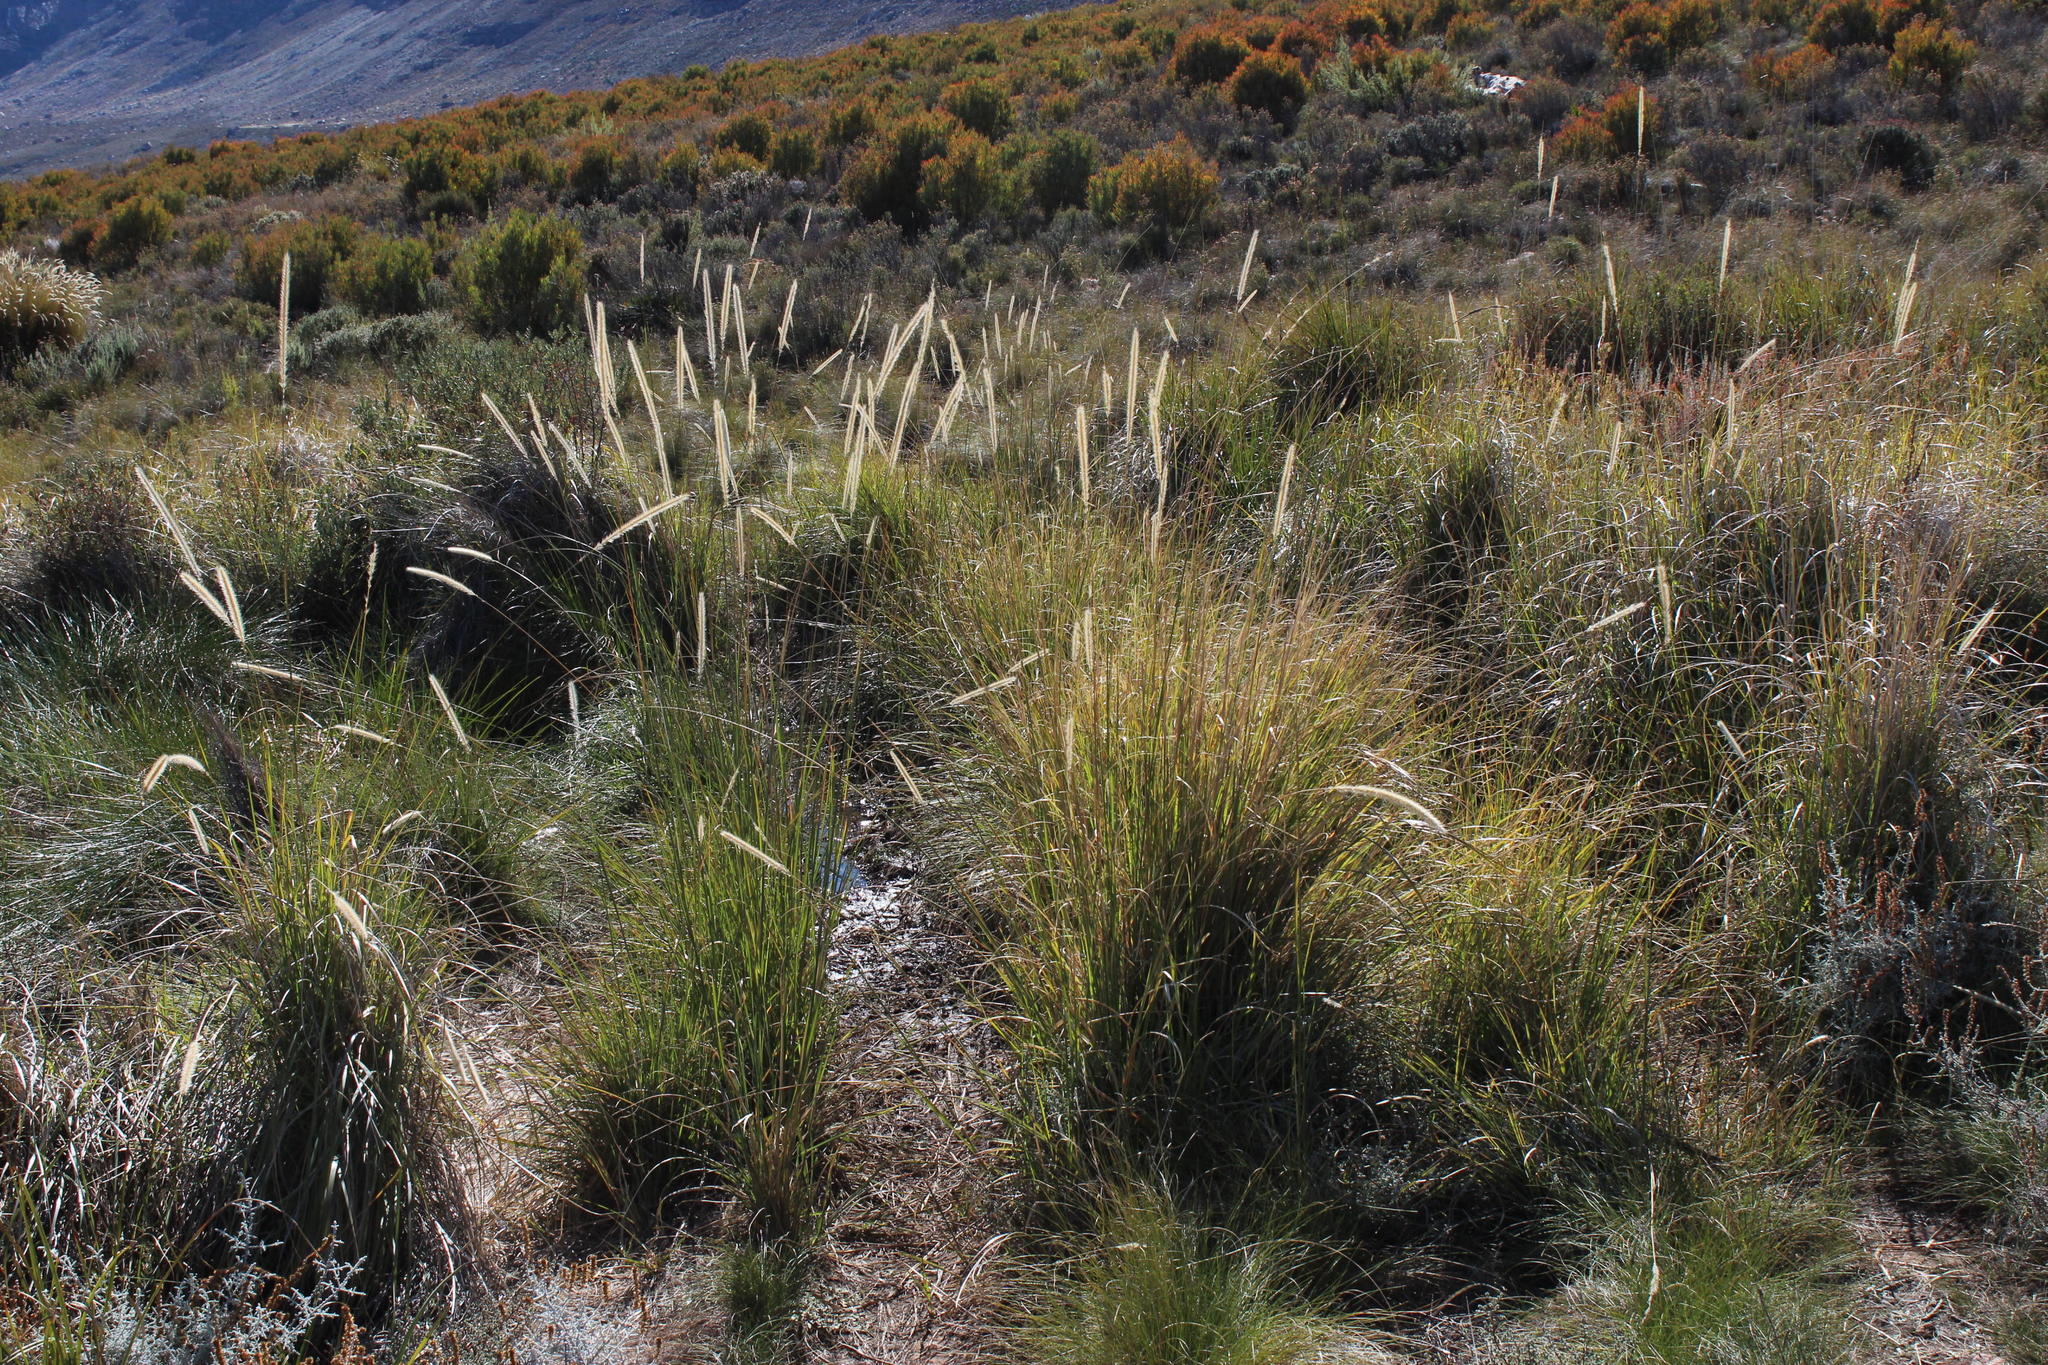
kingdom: Plantae
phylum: Tracheophyta
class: Liliopsida
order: Poales
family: Poaceae
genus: Setaria
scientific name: Setaria sphacelata
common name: African bristlegrass
